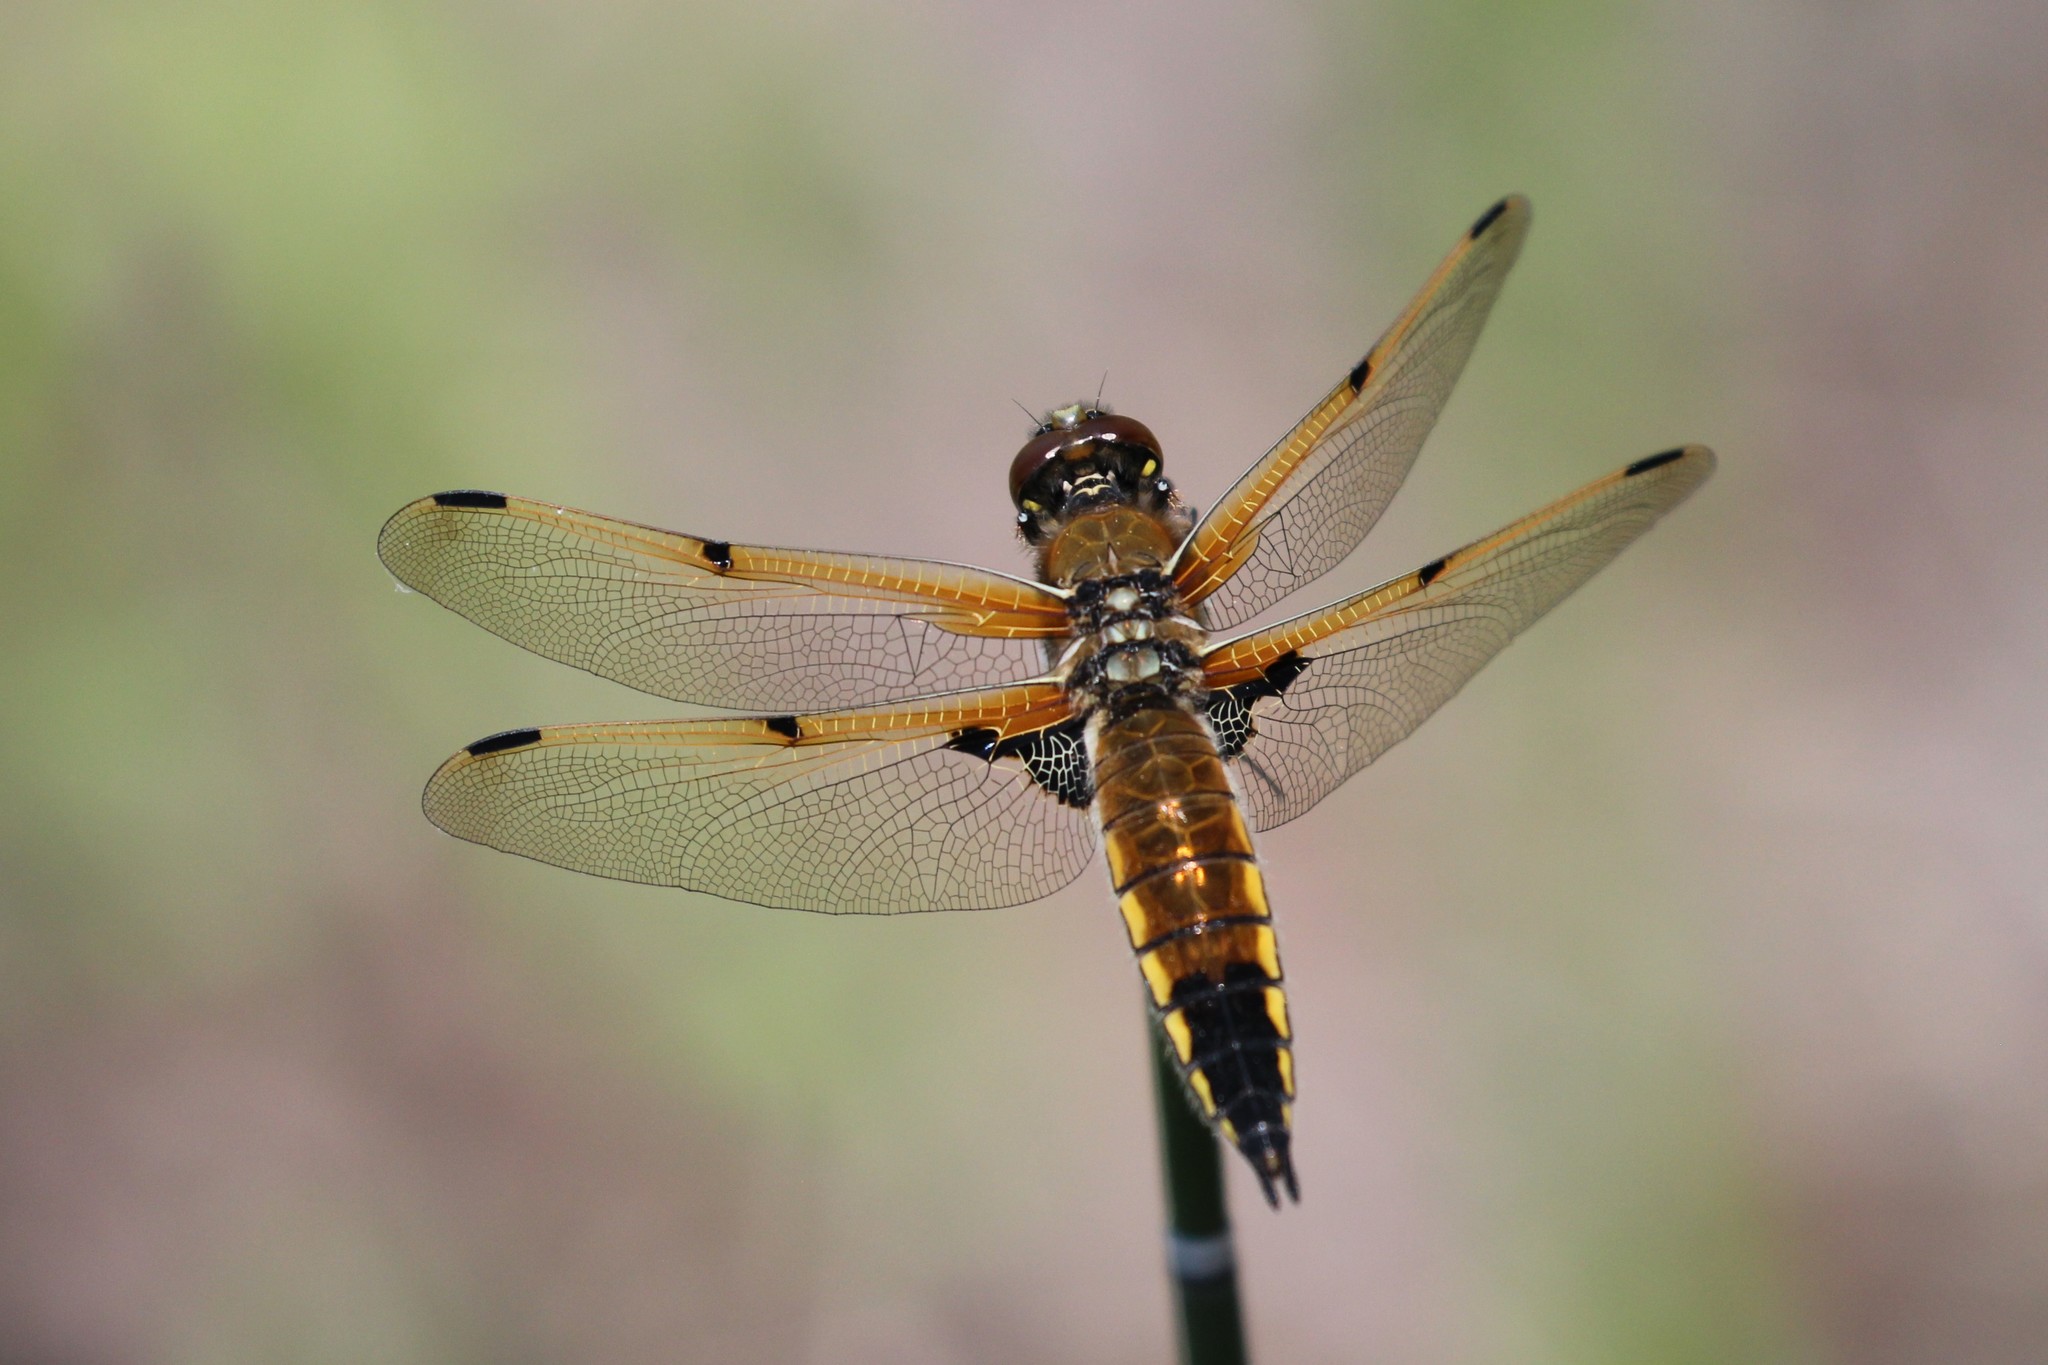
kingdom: Animalia
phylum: Arthropoda
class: Insecta
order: Odonata
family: Libellulidae
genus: Libellula
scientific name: Libellula quadrimaculata
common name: Four-spotted chaser
